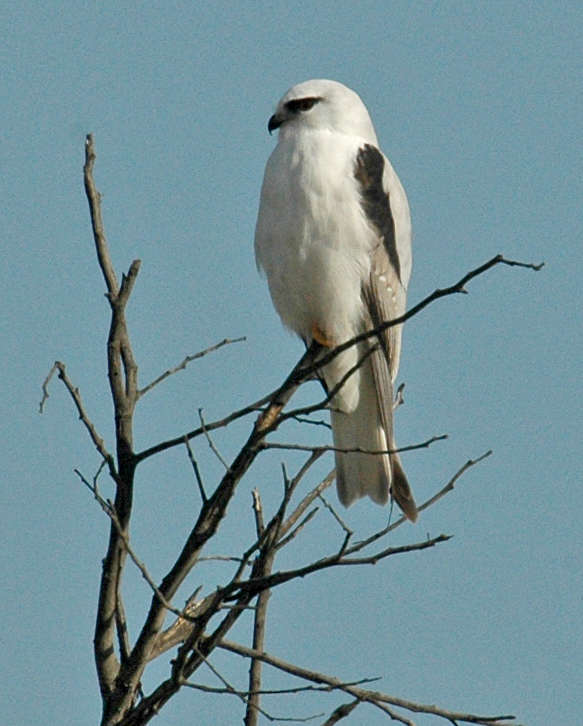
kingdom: Animalia
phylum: Chordata
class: Aves
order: Accipitriformes
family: Accipitridae
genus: Elanus
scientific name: Elanus axillaris
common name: Black-shouldered kite
